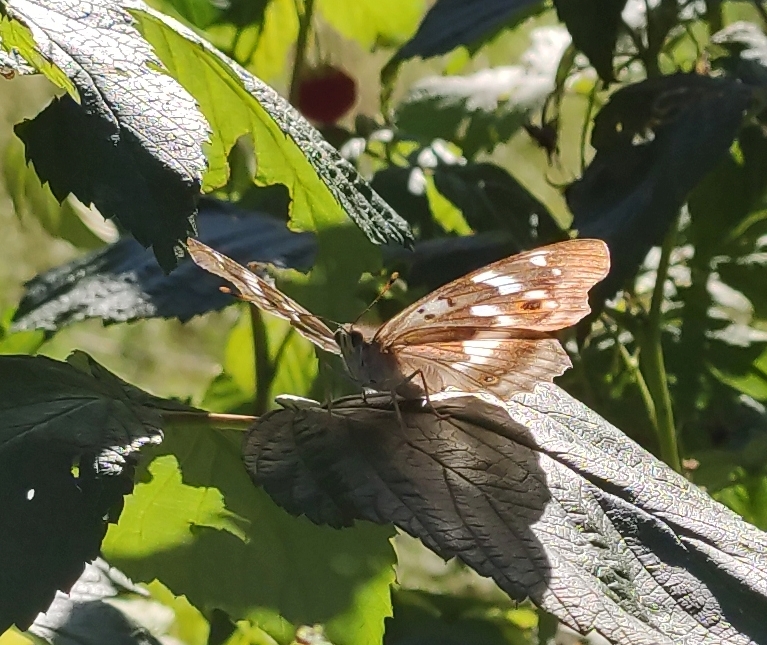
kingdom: Animalia
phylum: Arthropoda
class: Insecta
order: Lepidoptera
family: Nymphalidae
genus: Apatura
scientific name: Apatura ilia
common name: Lesser purple emperor
